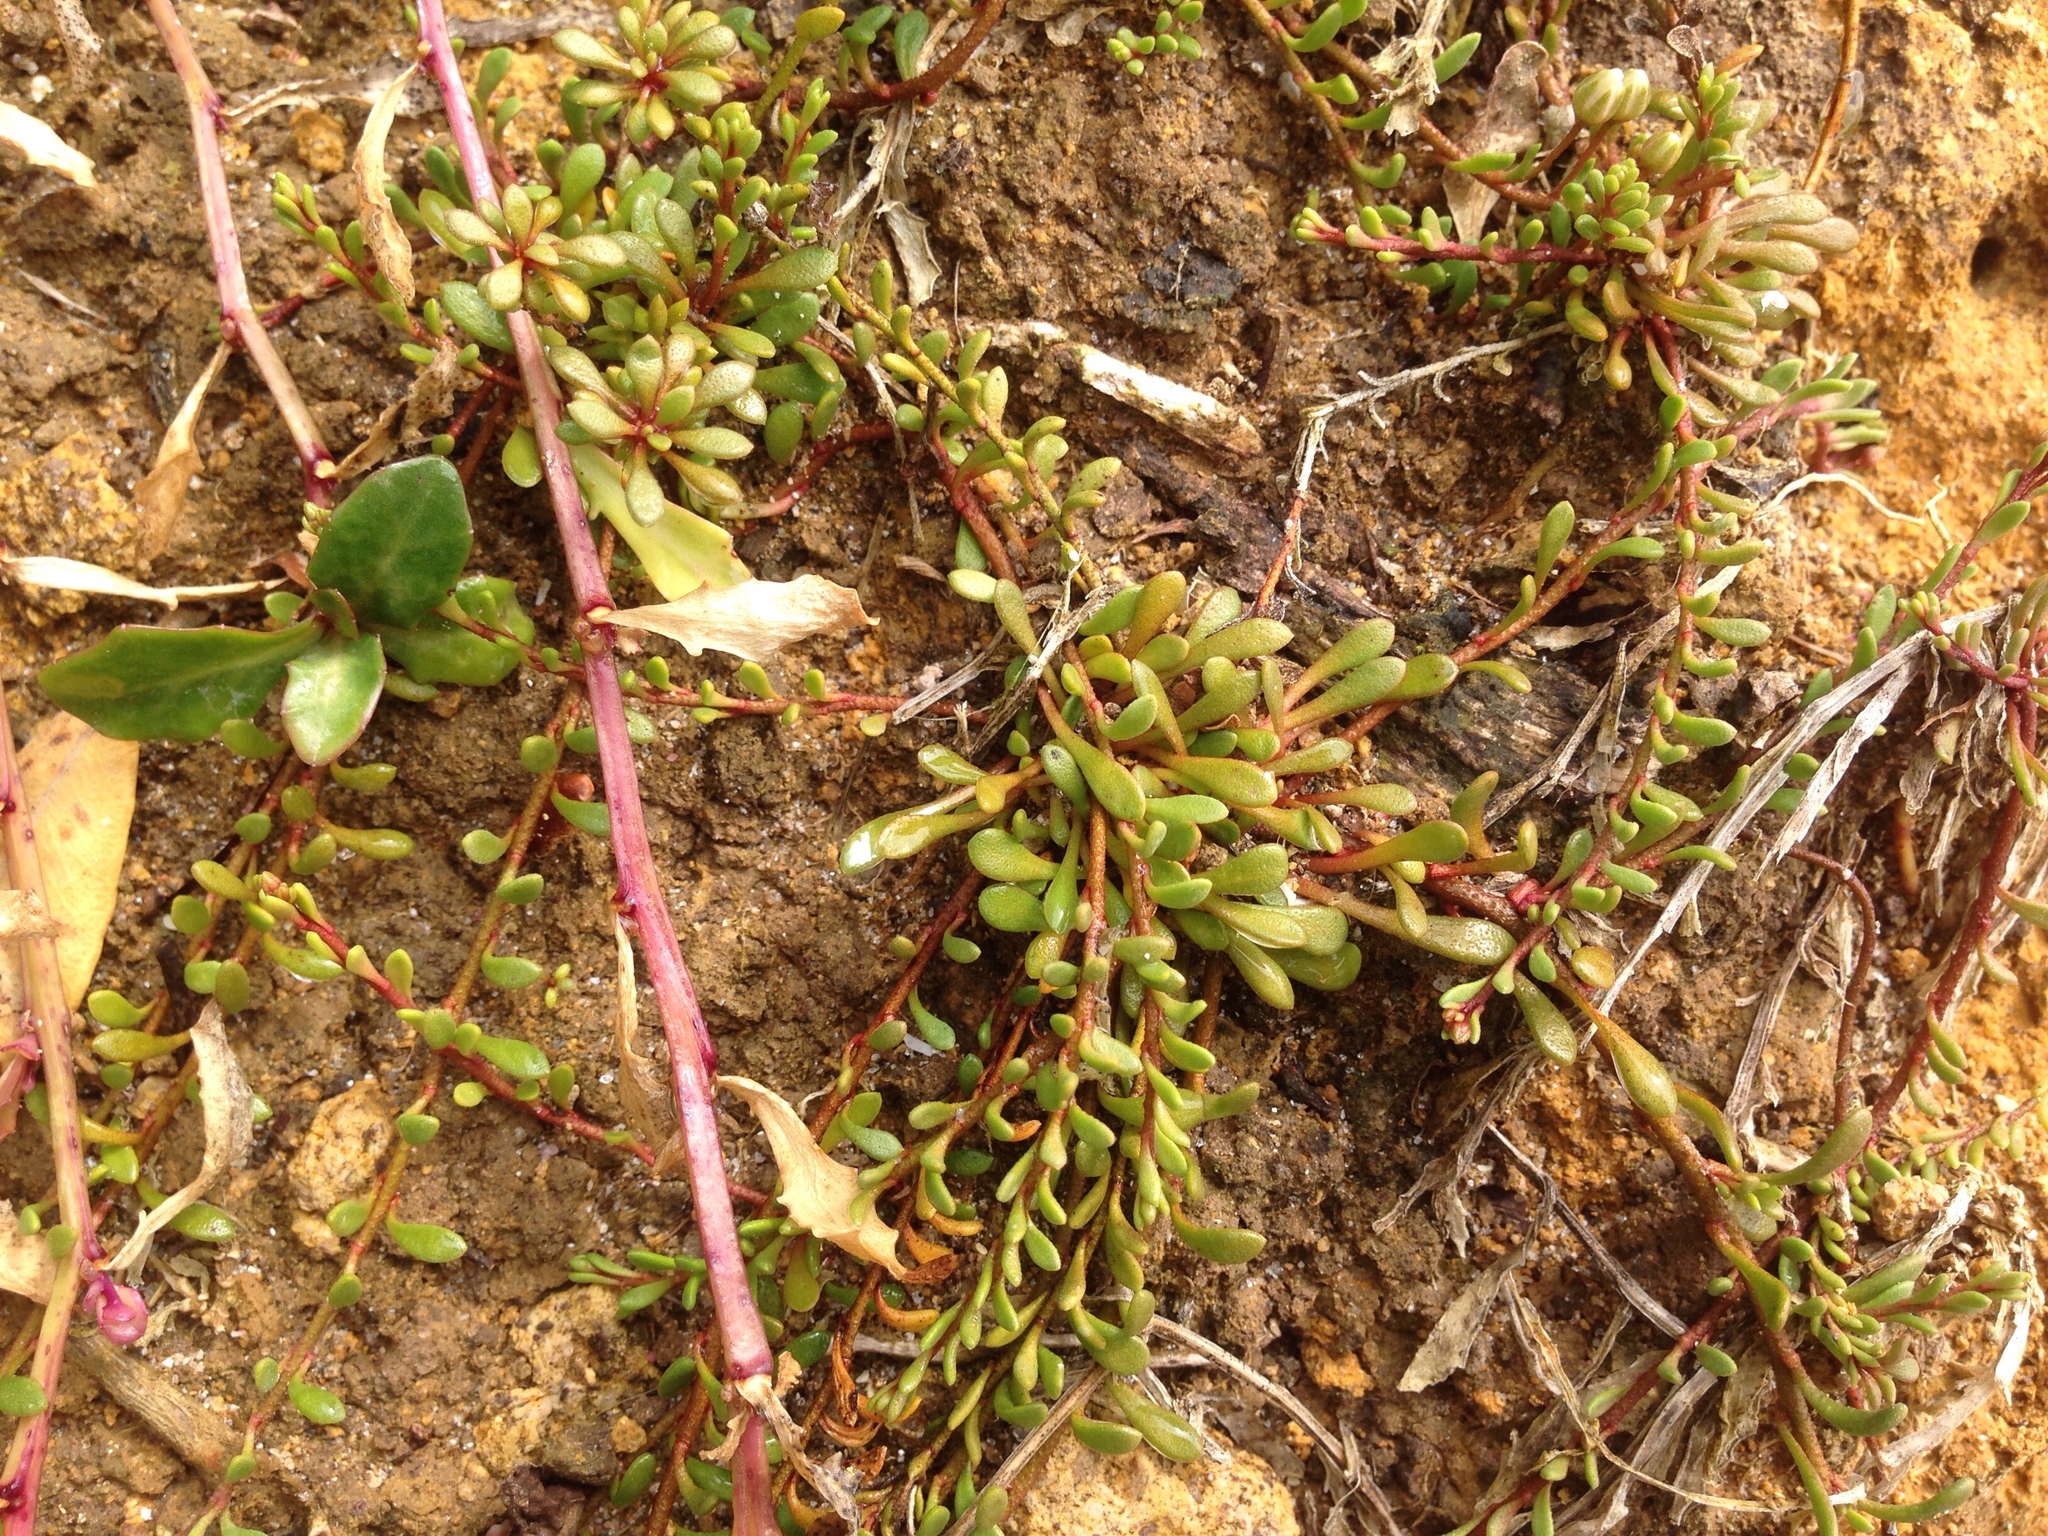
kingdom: Plantae
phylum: Tracheophyta
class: Magnoliopsida
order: Ericales
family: Primulaceae
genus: Samolus
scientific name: Samolus repens
